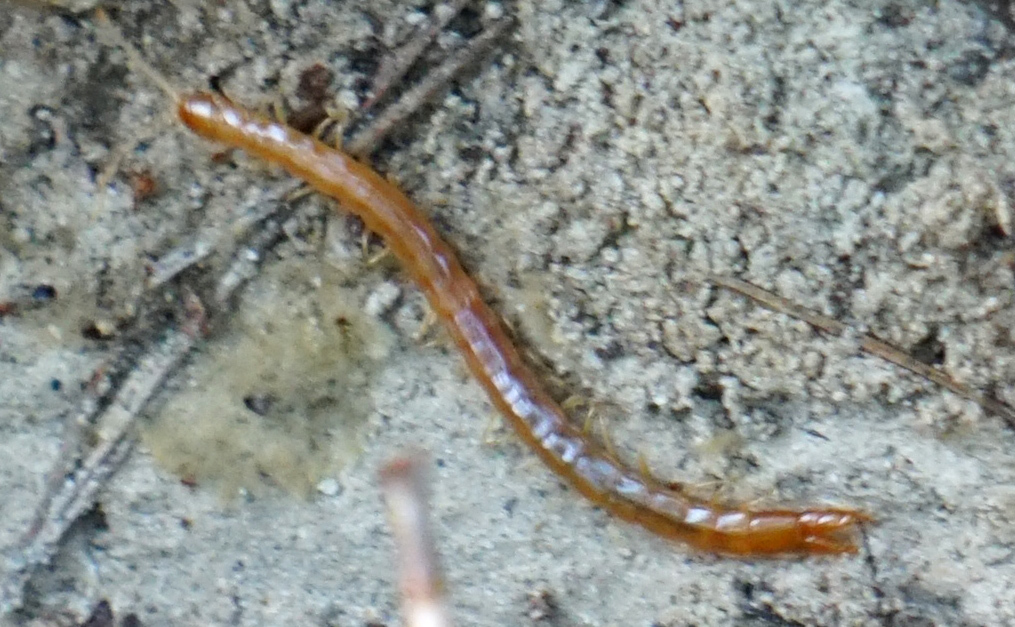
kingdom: Animalia
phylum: Arthropoda
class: Chilopoda
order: Scolopendromorpha
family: Cryptopidae
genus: Theatops
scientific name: Theatops posticus
